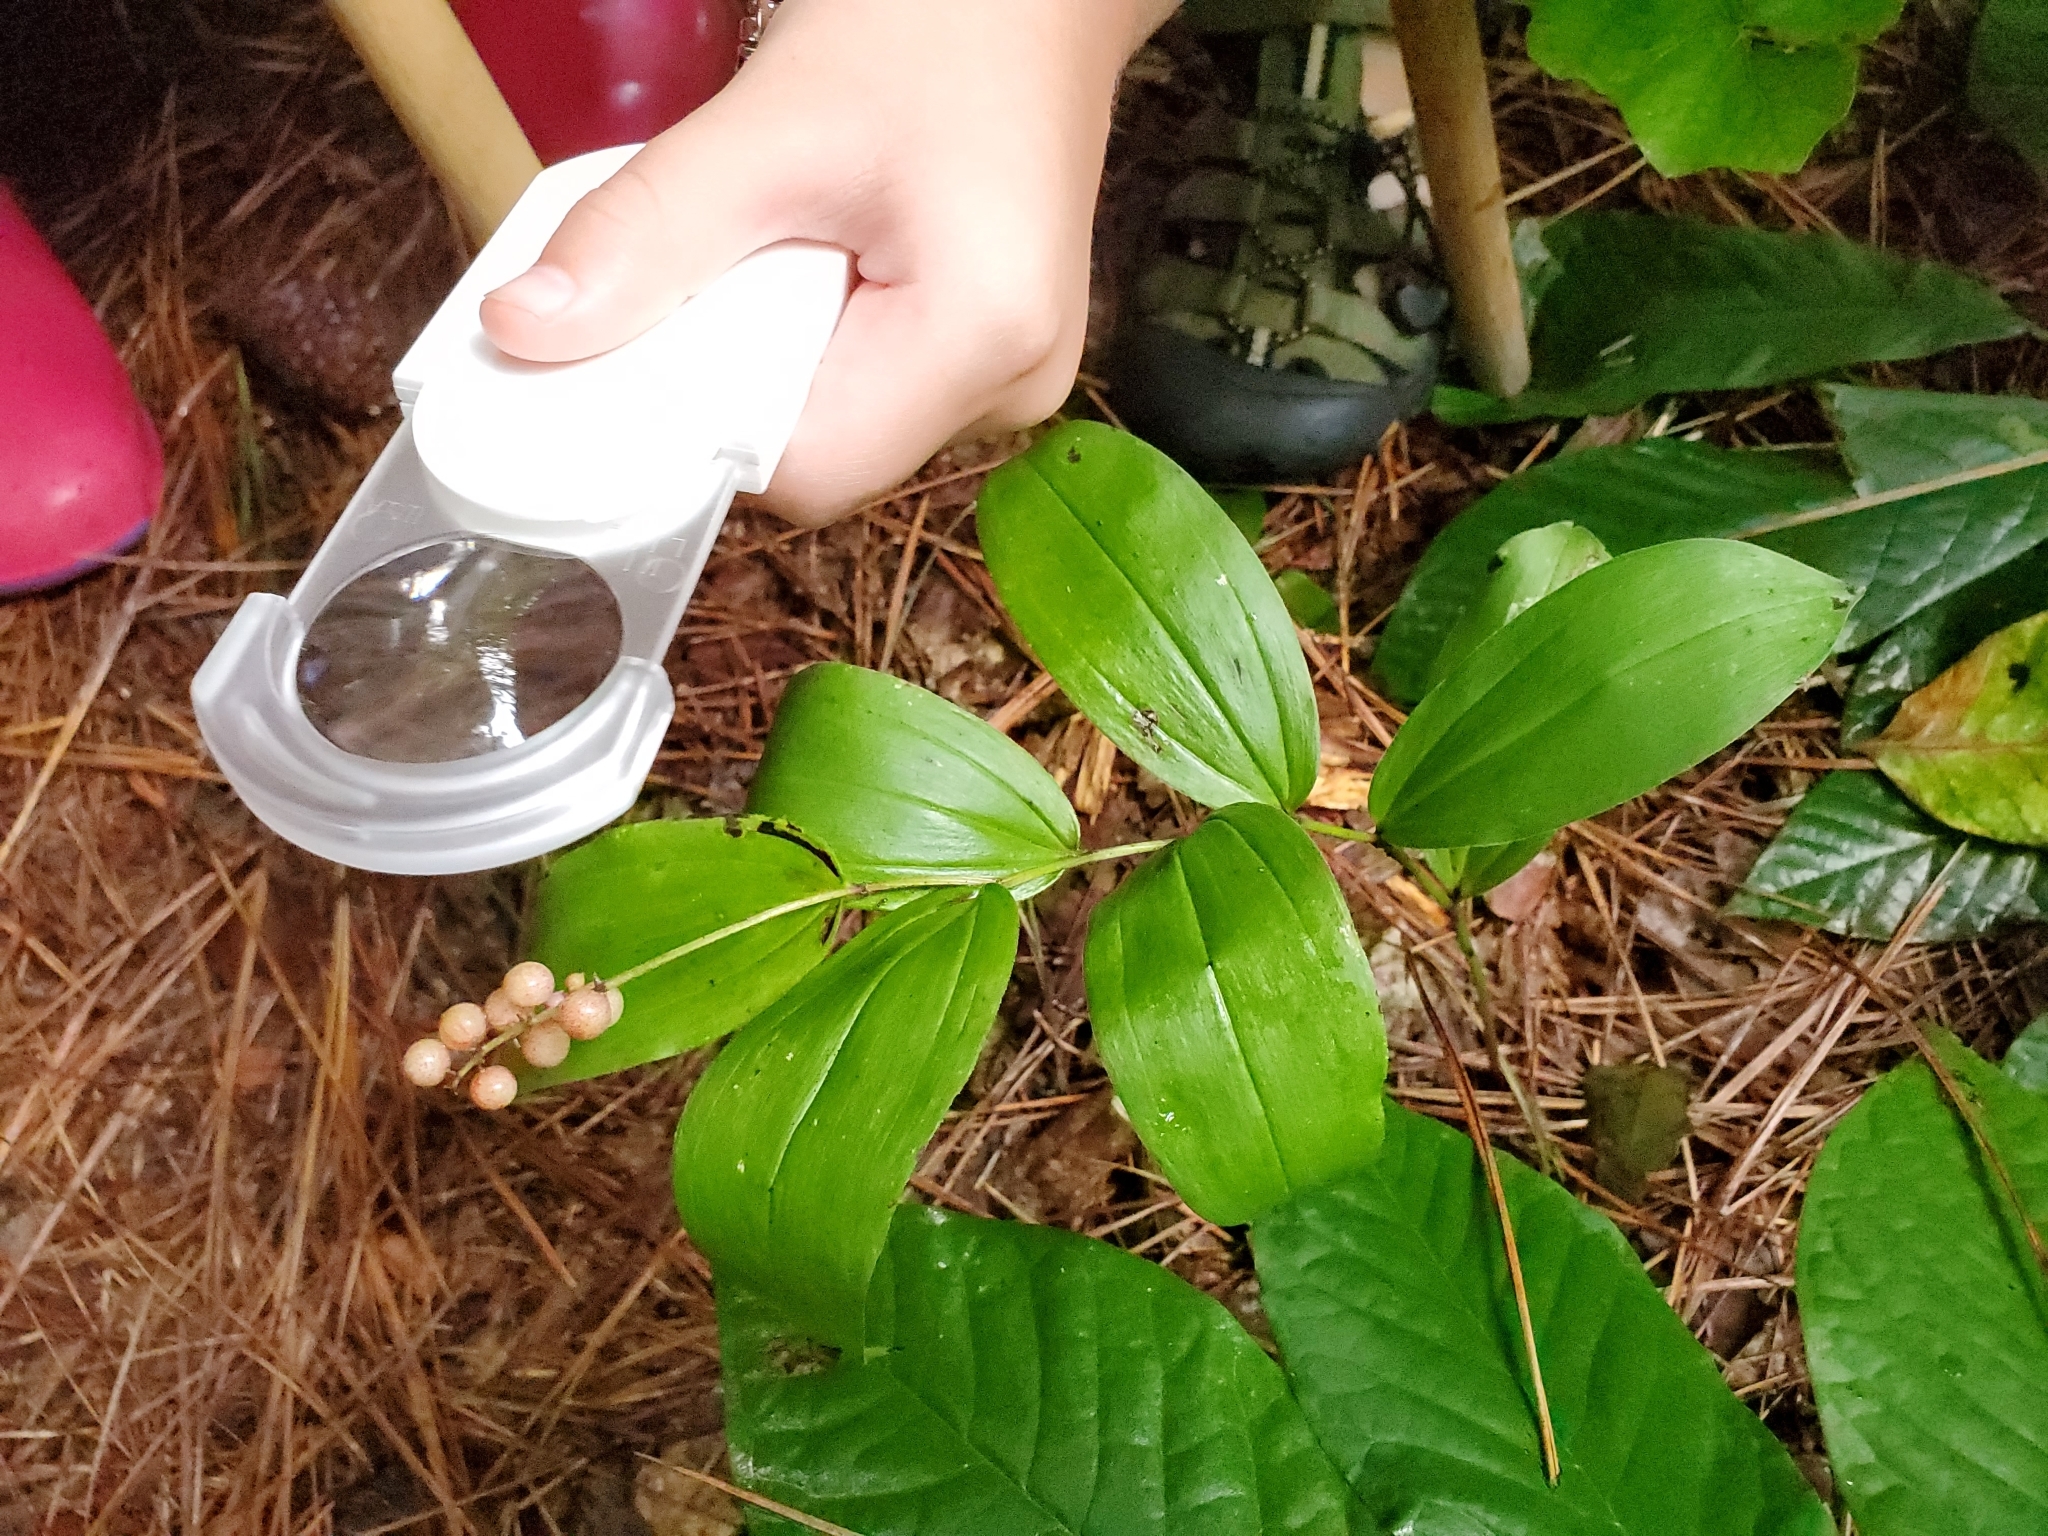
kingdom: Plantae
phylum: Tracheophyta
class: Liliopsida
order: Asparagales
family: Asparagaceae
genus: Maianthemum
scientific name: Maianthemum racemosum
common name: False spikenard
